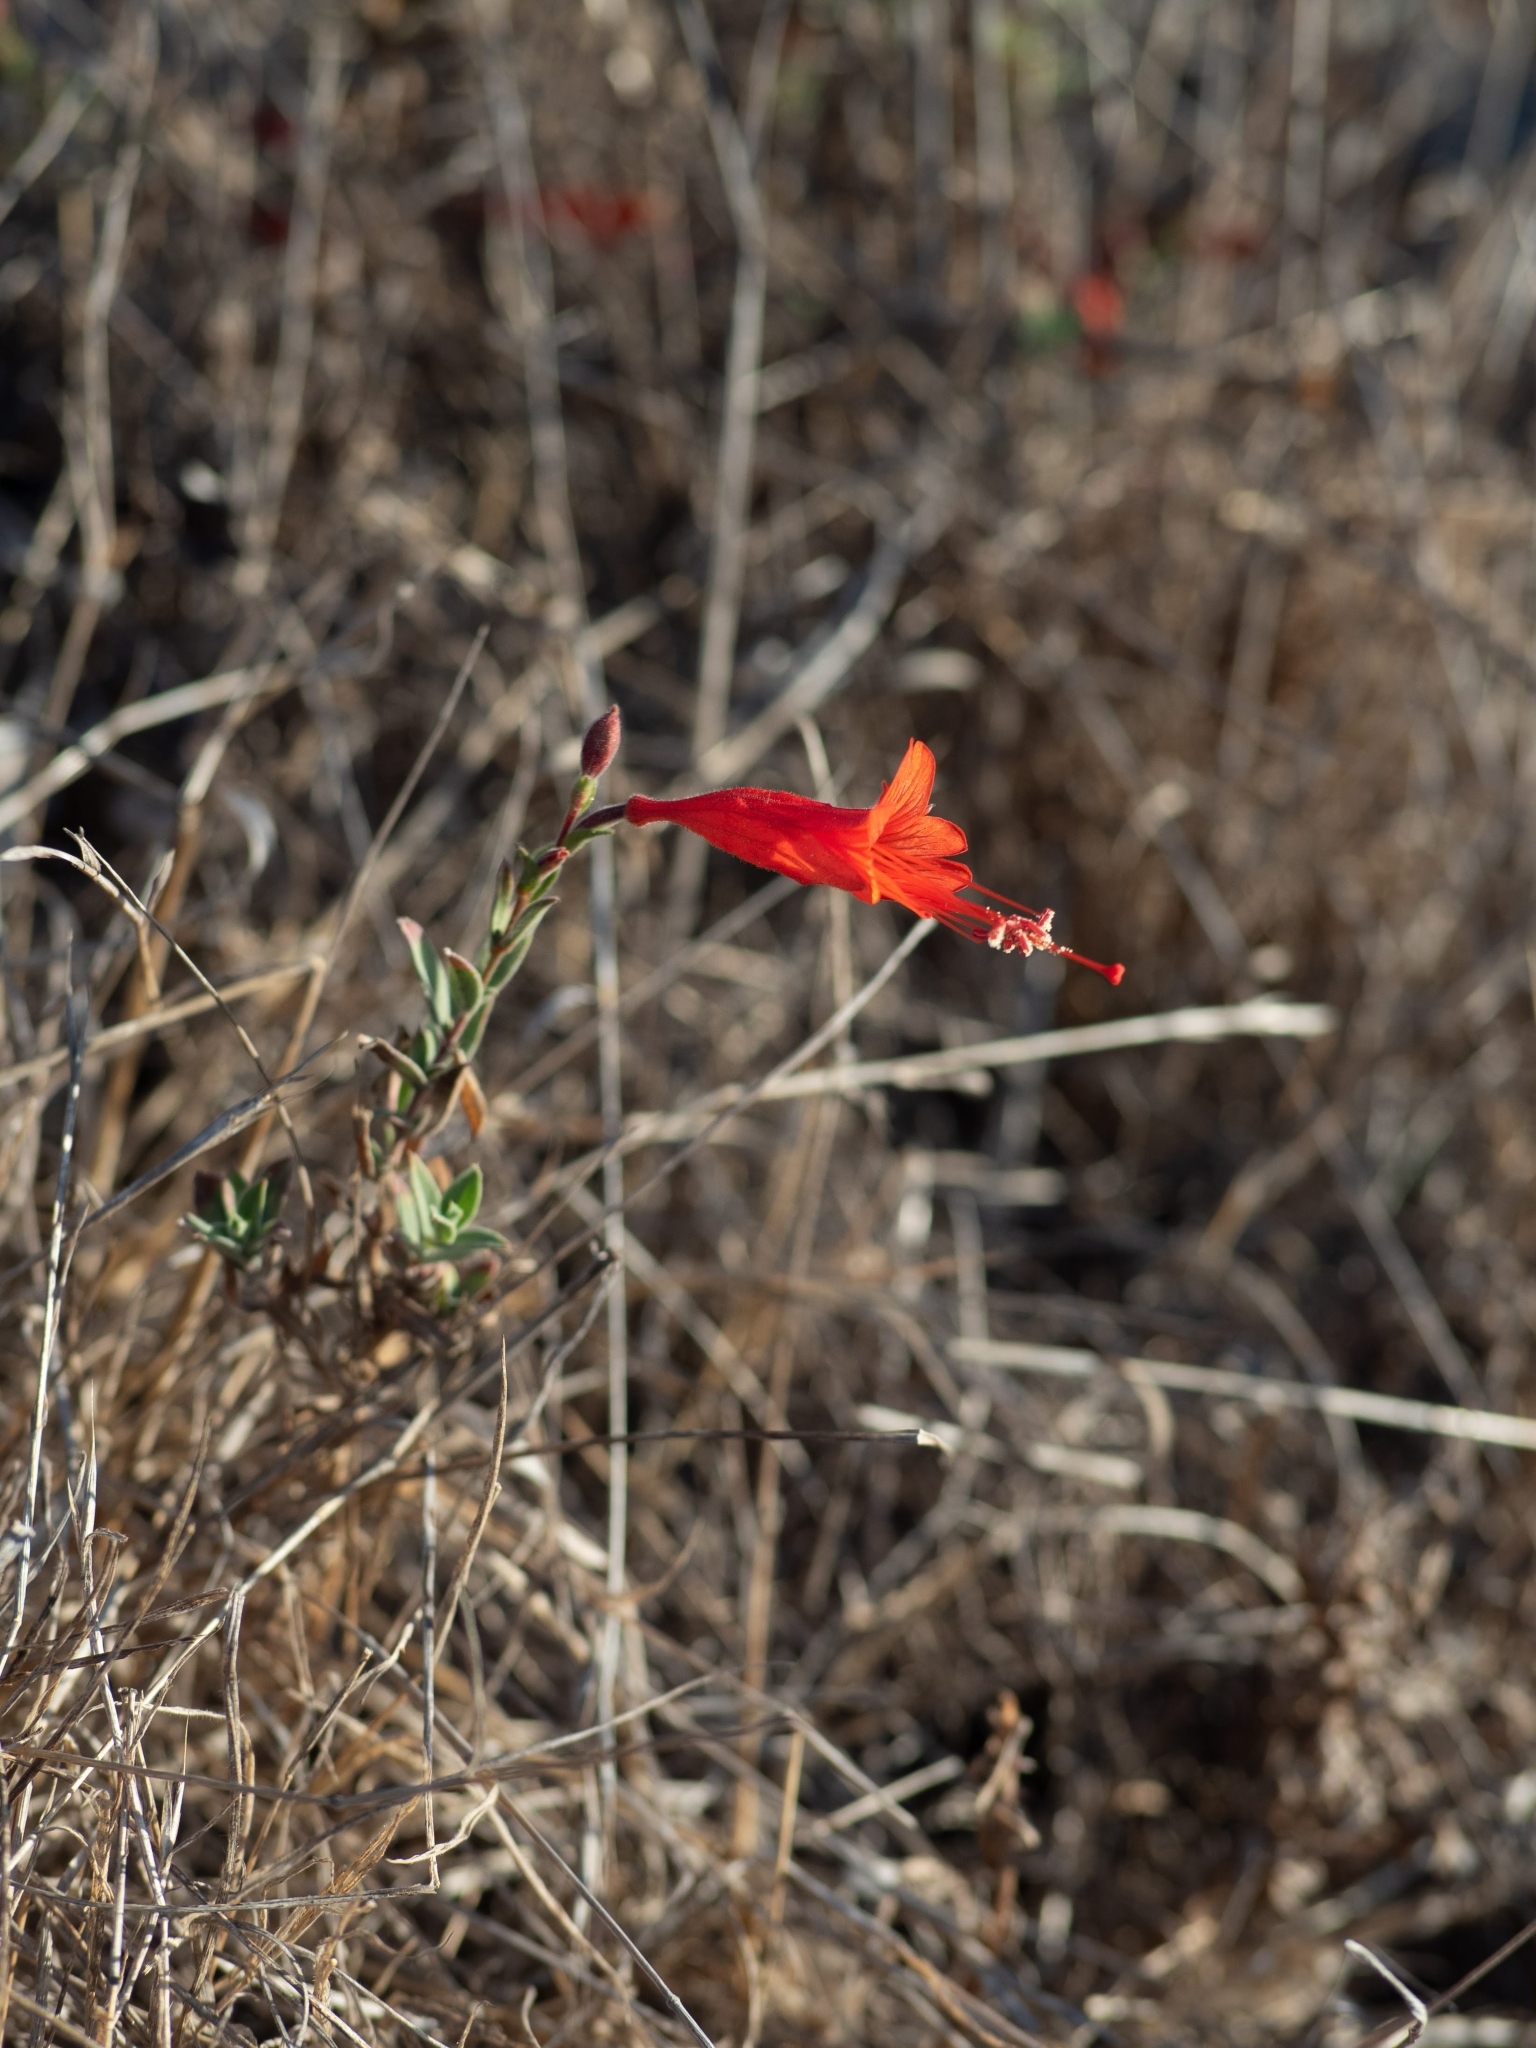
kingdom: Plantae
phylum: Tracheophyta
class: Magnoliopsida
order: Myrtales
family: Onagraceae
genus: Epilobium
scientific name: Epilobium canum
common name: California-fuchsia
